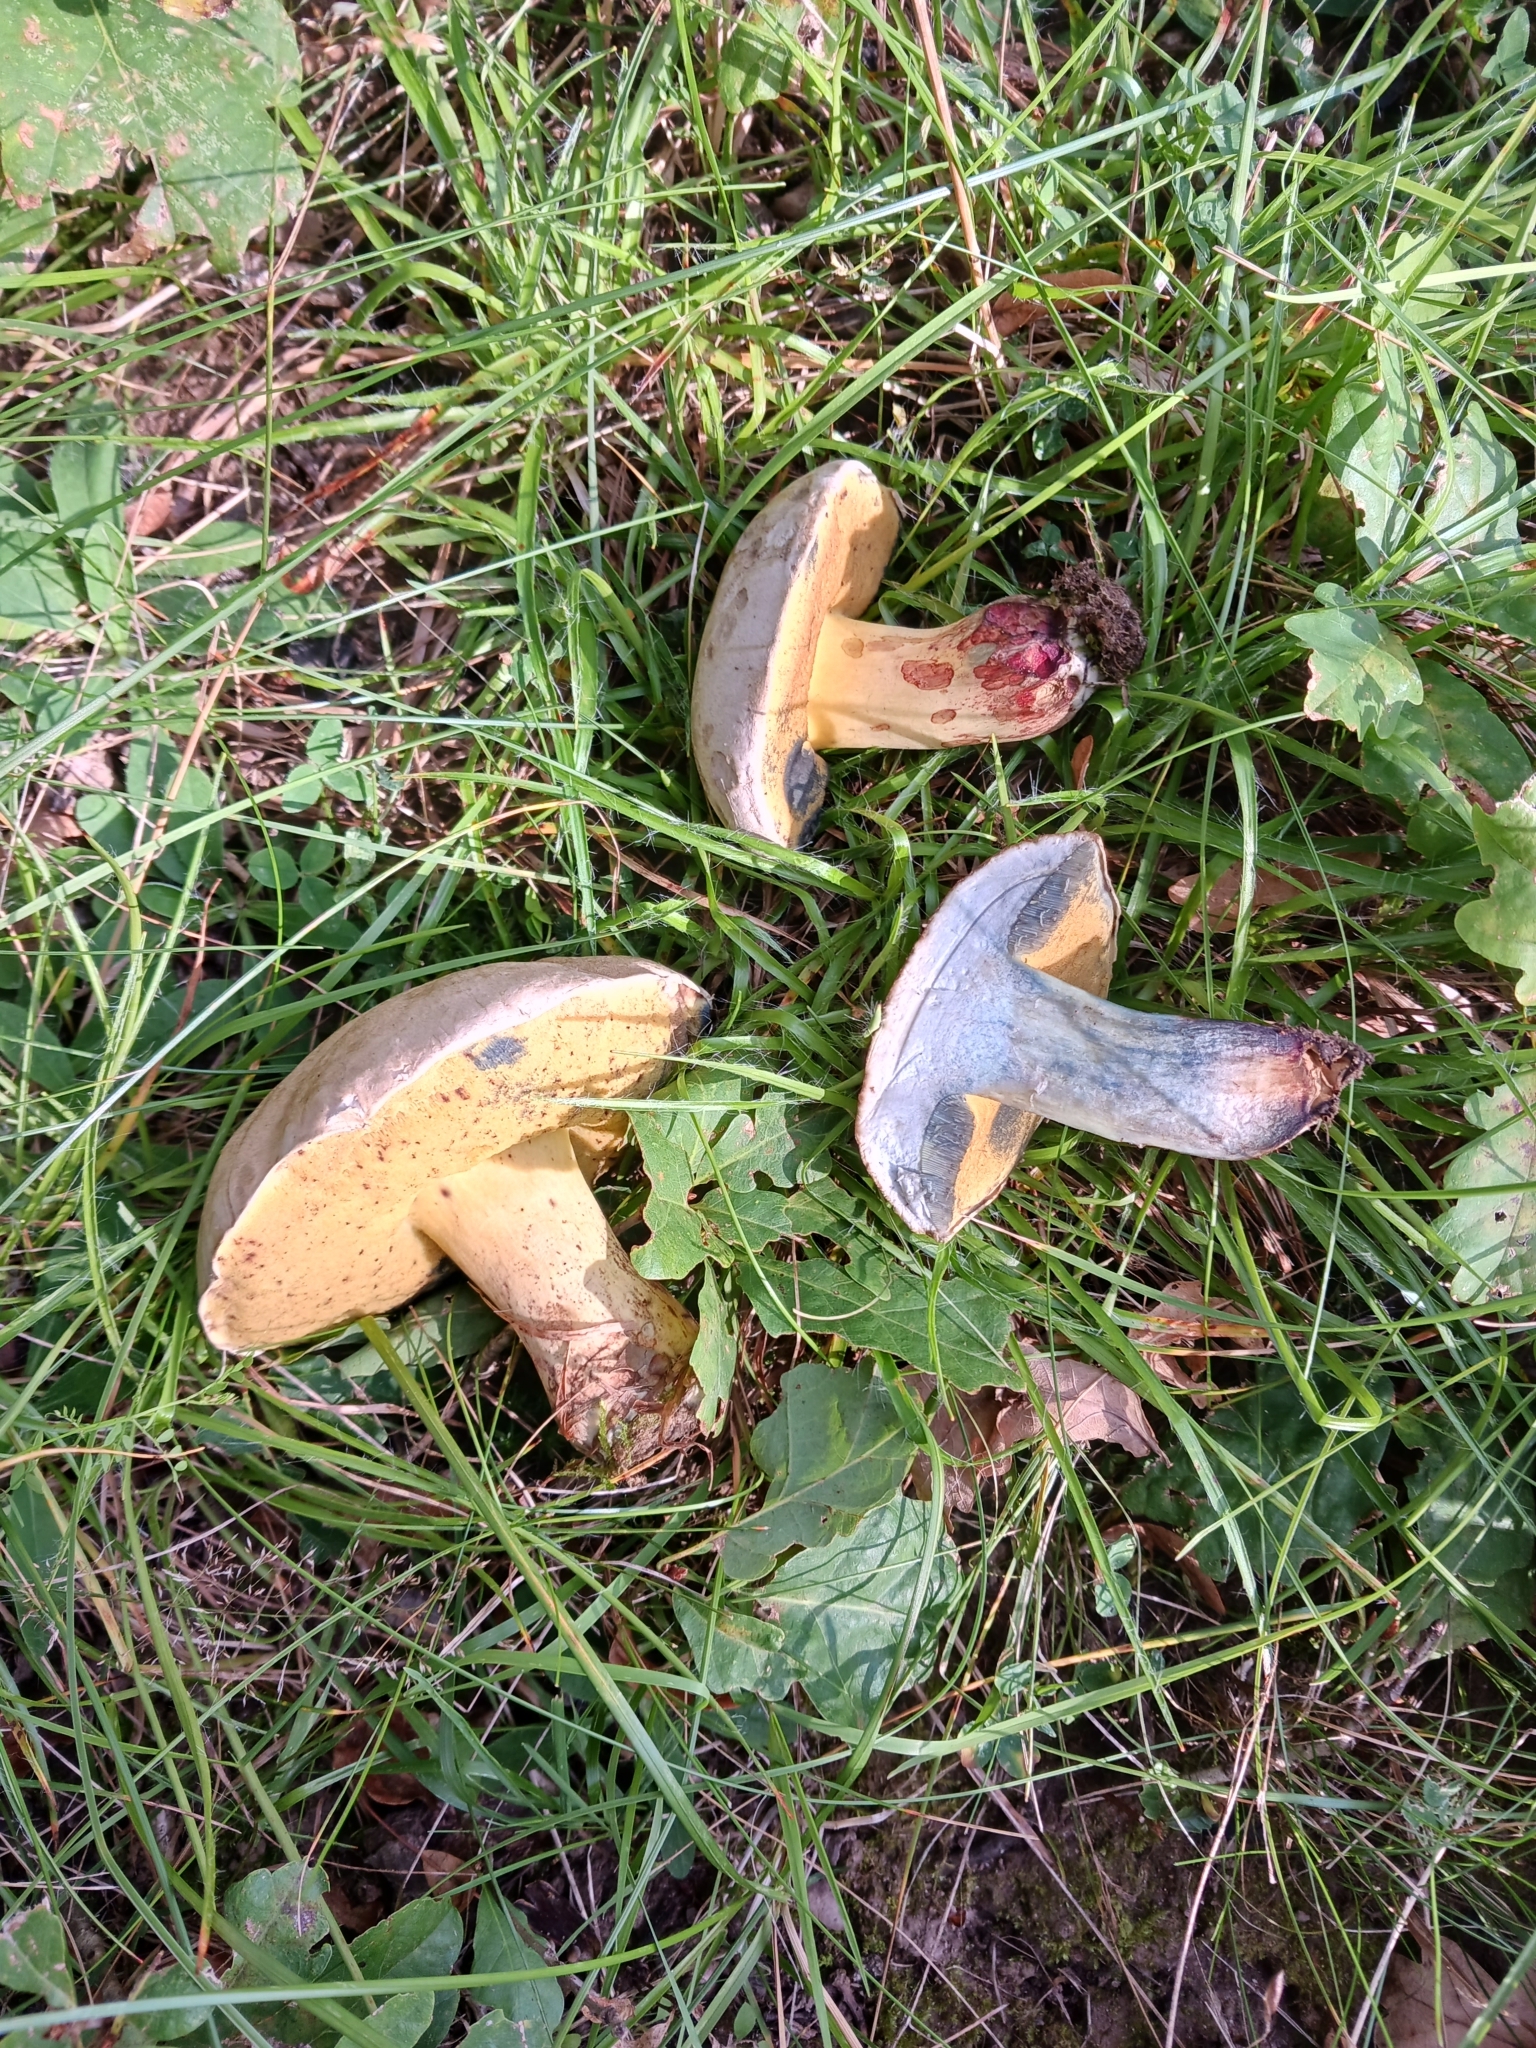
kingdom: Fungi
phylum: Basidiomycota
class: Agaricomycetes
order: Boletales
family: Boletaceae
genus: Caloboletus
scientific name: Caloboletus kluzakii
